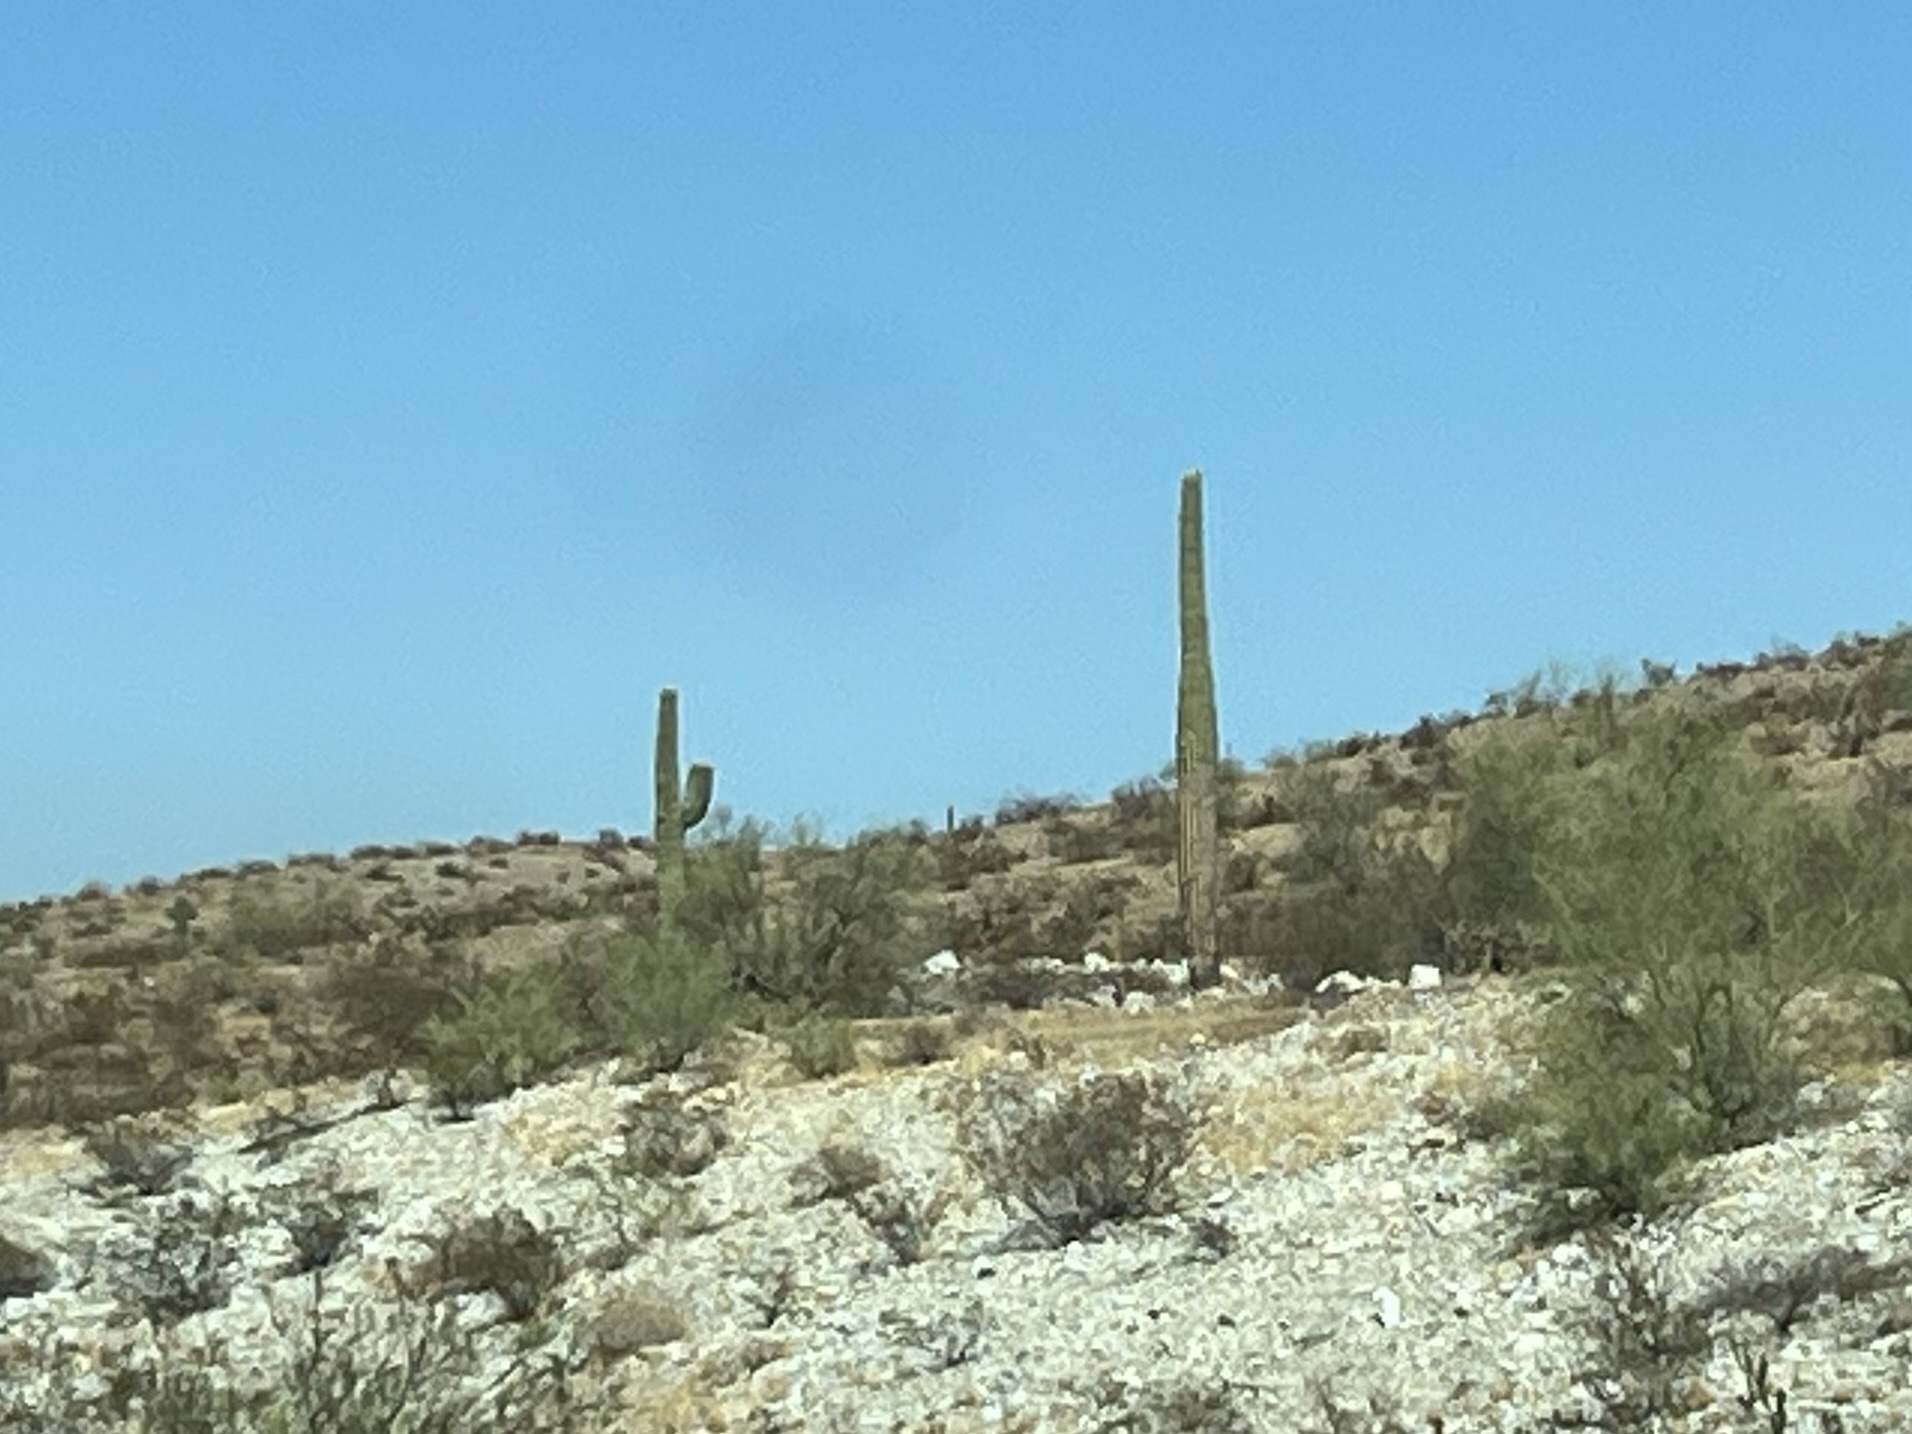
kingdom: Plantae
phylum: Tracheophyta
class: Magnoliopsida
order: Caryophyllales
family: Cactaceae
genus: Carnegiea
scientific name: Carnegiea gigantea
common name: Saguaro
